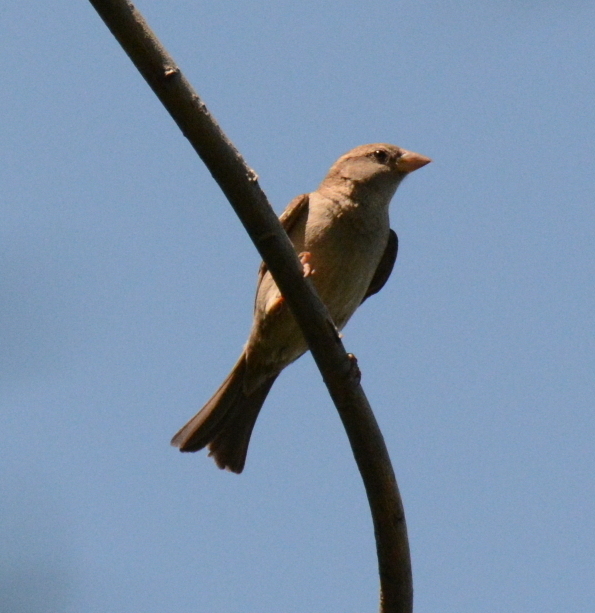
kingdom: Animalia
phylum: Chordata
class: Aves
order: Passeriformes
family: Passeridae
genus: Passer
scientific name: Passer domesticus
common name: House sparrow
